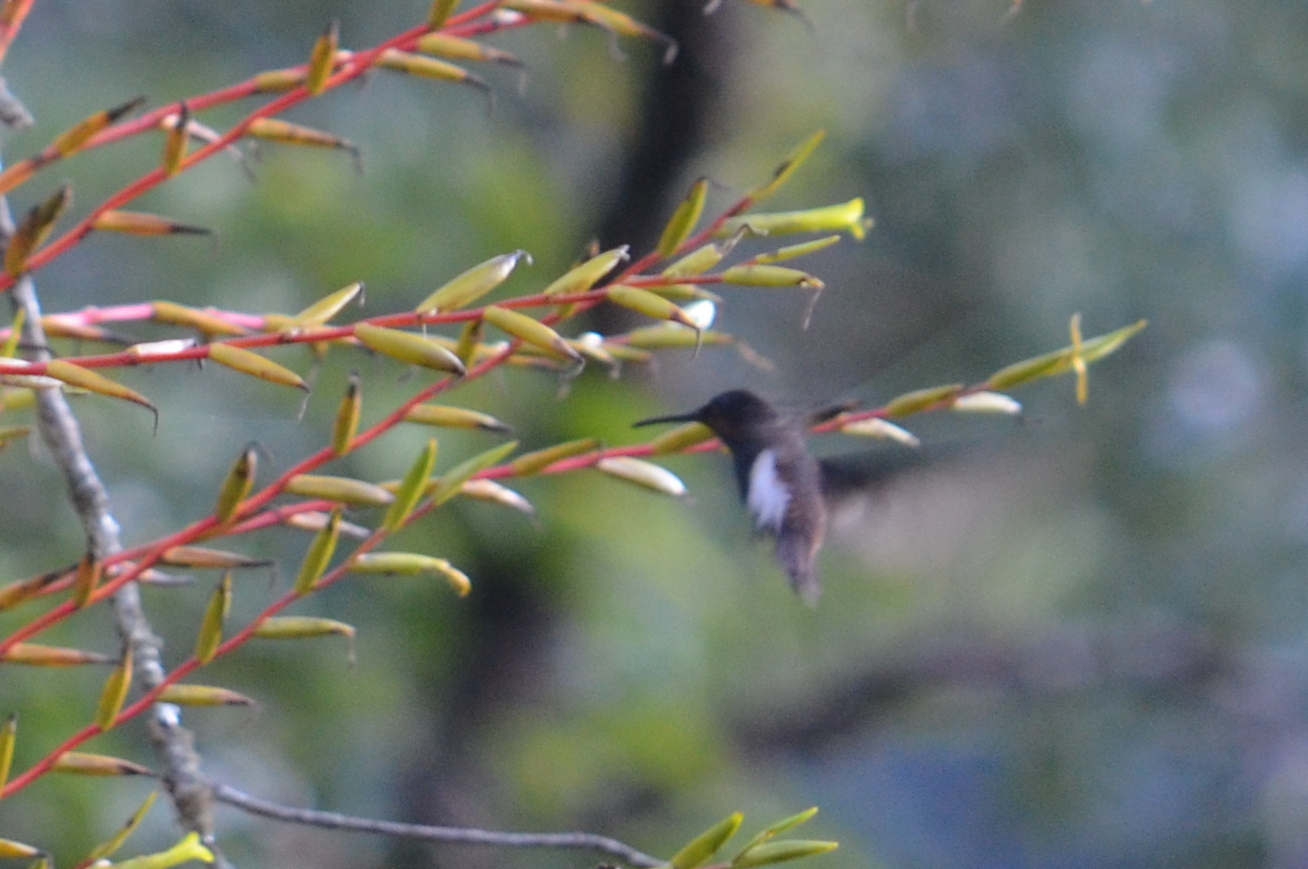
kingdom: Animalia
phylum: Chordata
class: Aves
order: Apodiformes
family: Trochilidae
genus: Florisuga
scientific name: Florisuga fusca
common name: Black jacobin
